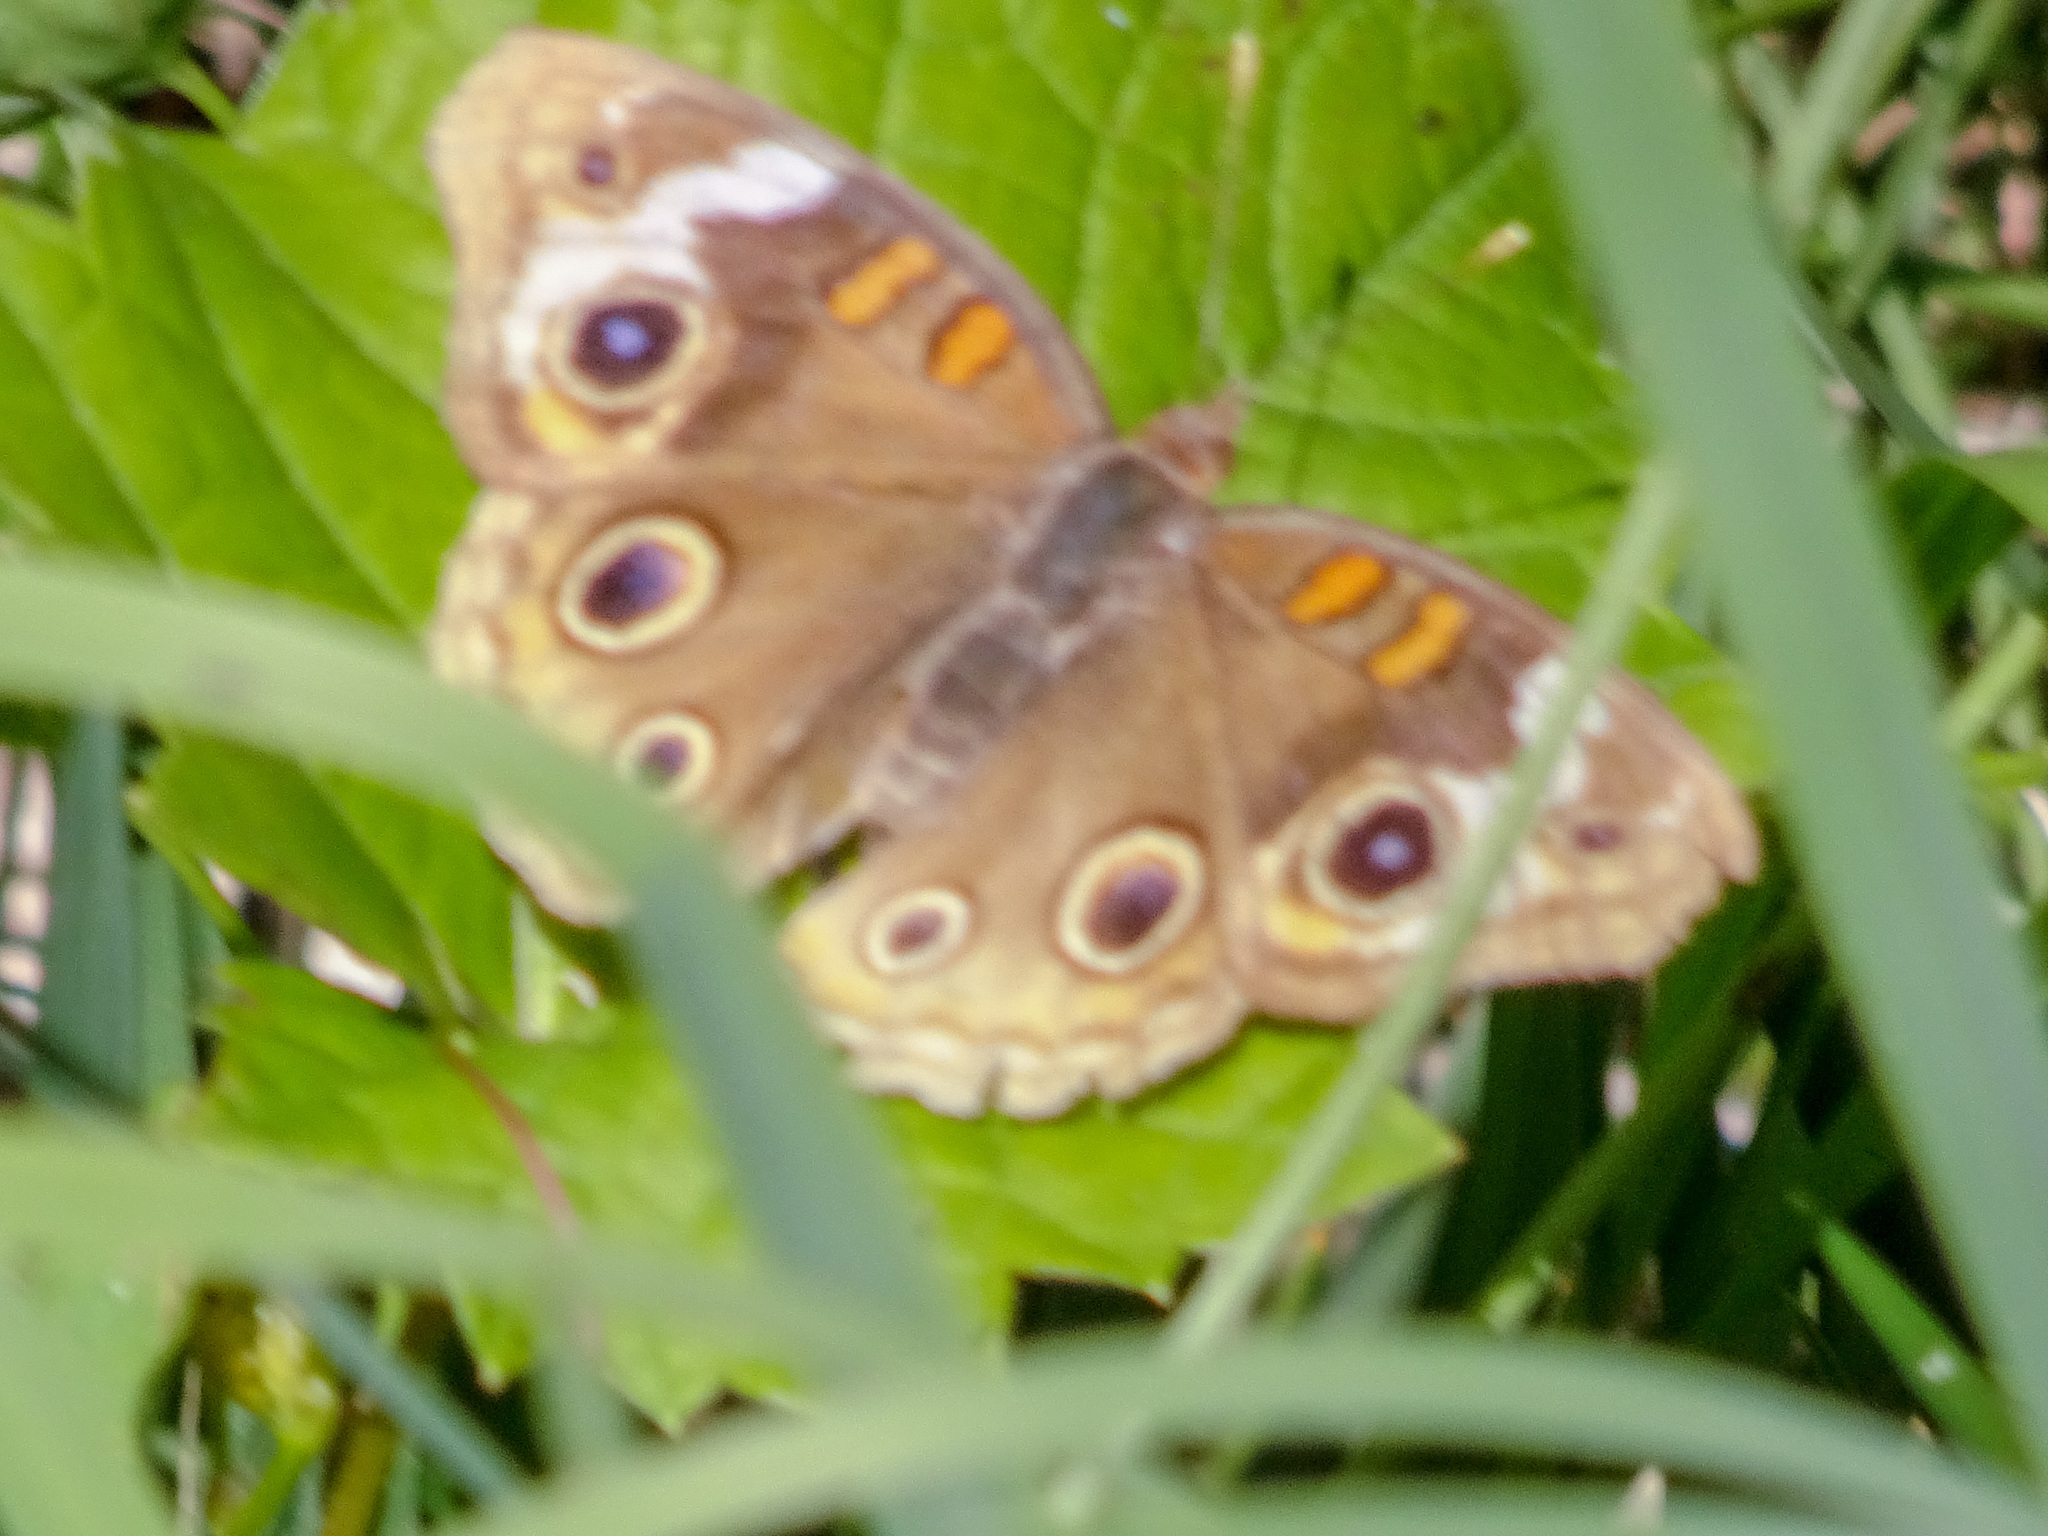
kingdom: Animalia
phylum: Arthropoda
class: Insecta
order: Lepidoptera
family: Nymphalidae
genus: Junonia
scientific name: Junonia coenia
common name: Common buckeye
